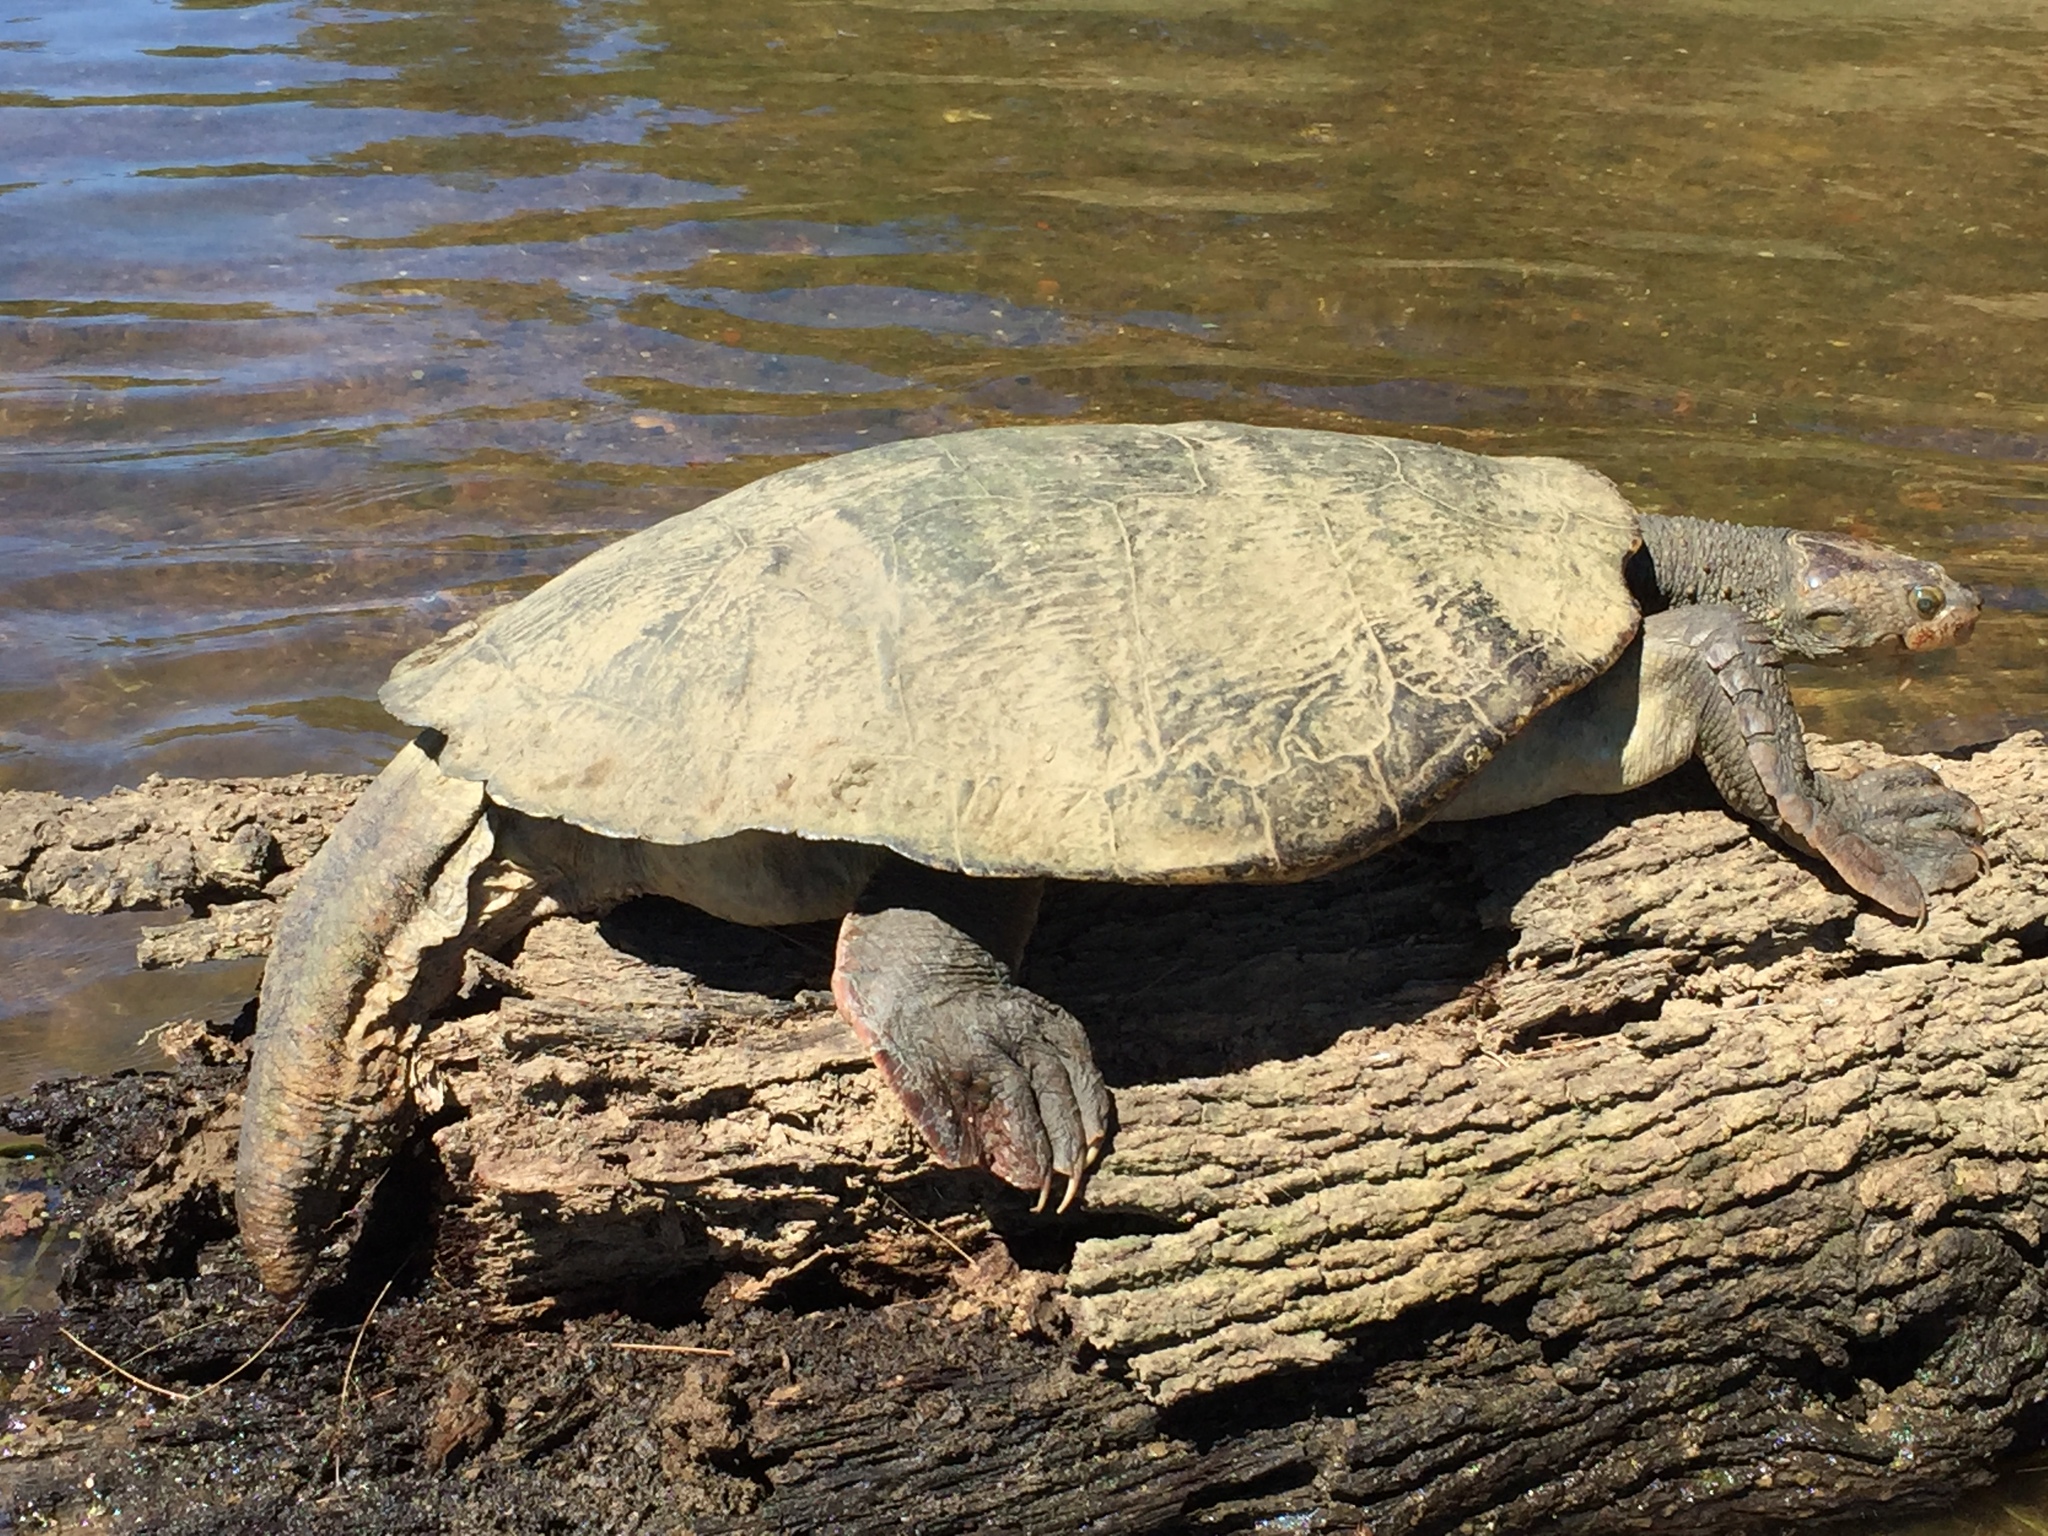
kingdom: Animalia
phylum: Chordata
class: Testudines
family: Chelidae
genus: Elusor
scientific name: Elusor macrurus
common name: Mary river turtle
